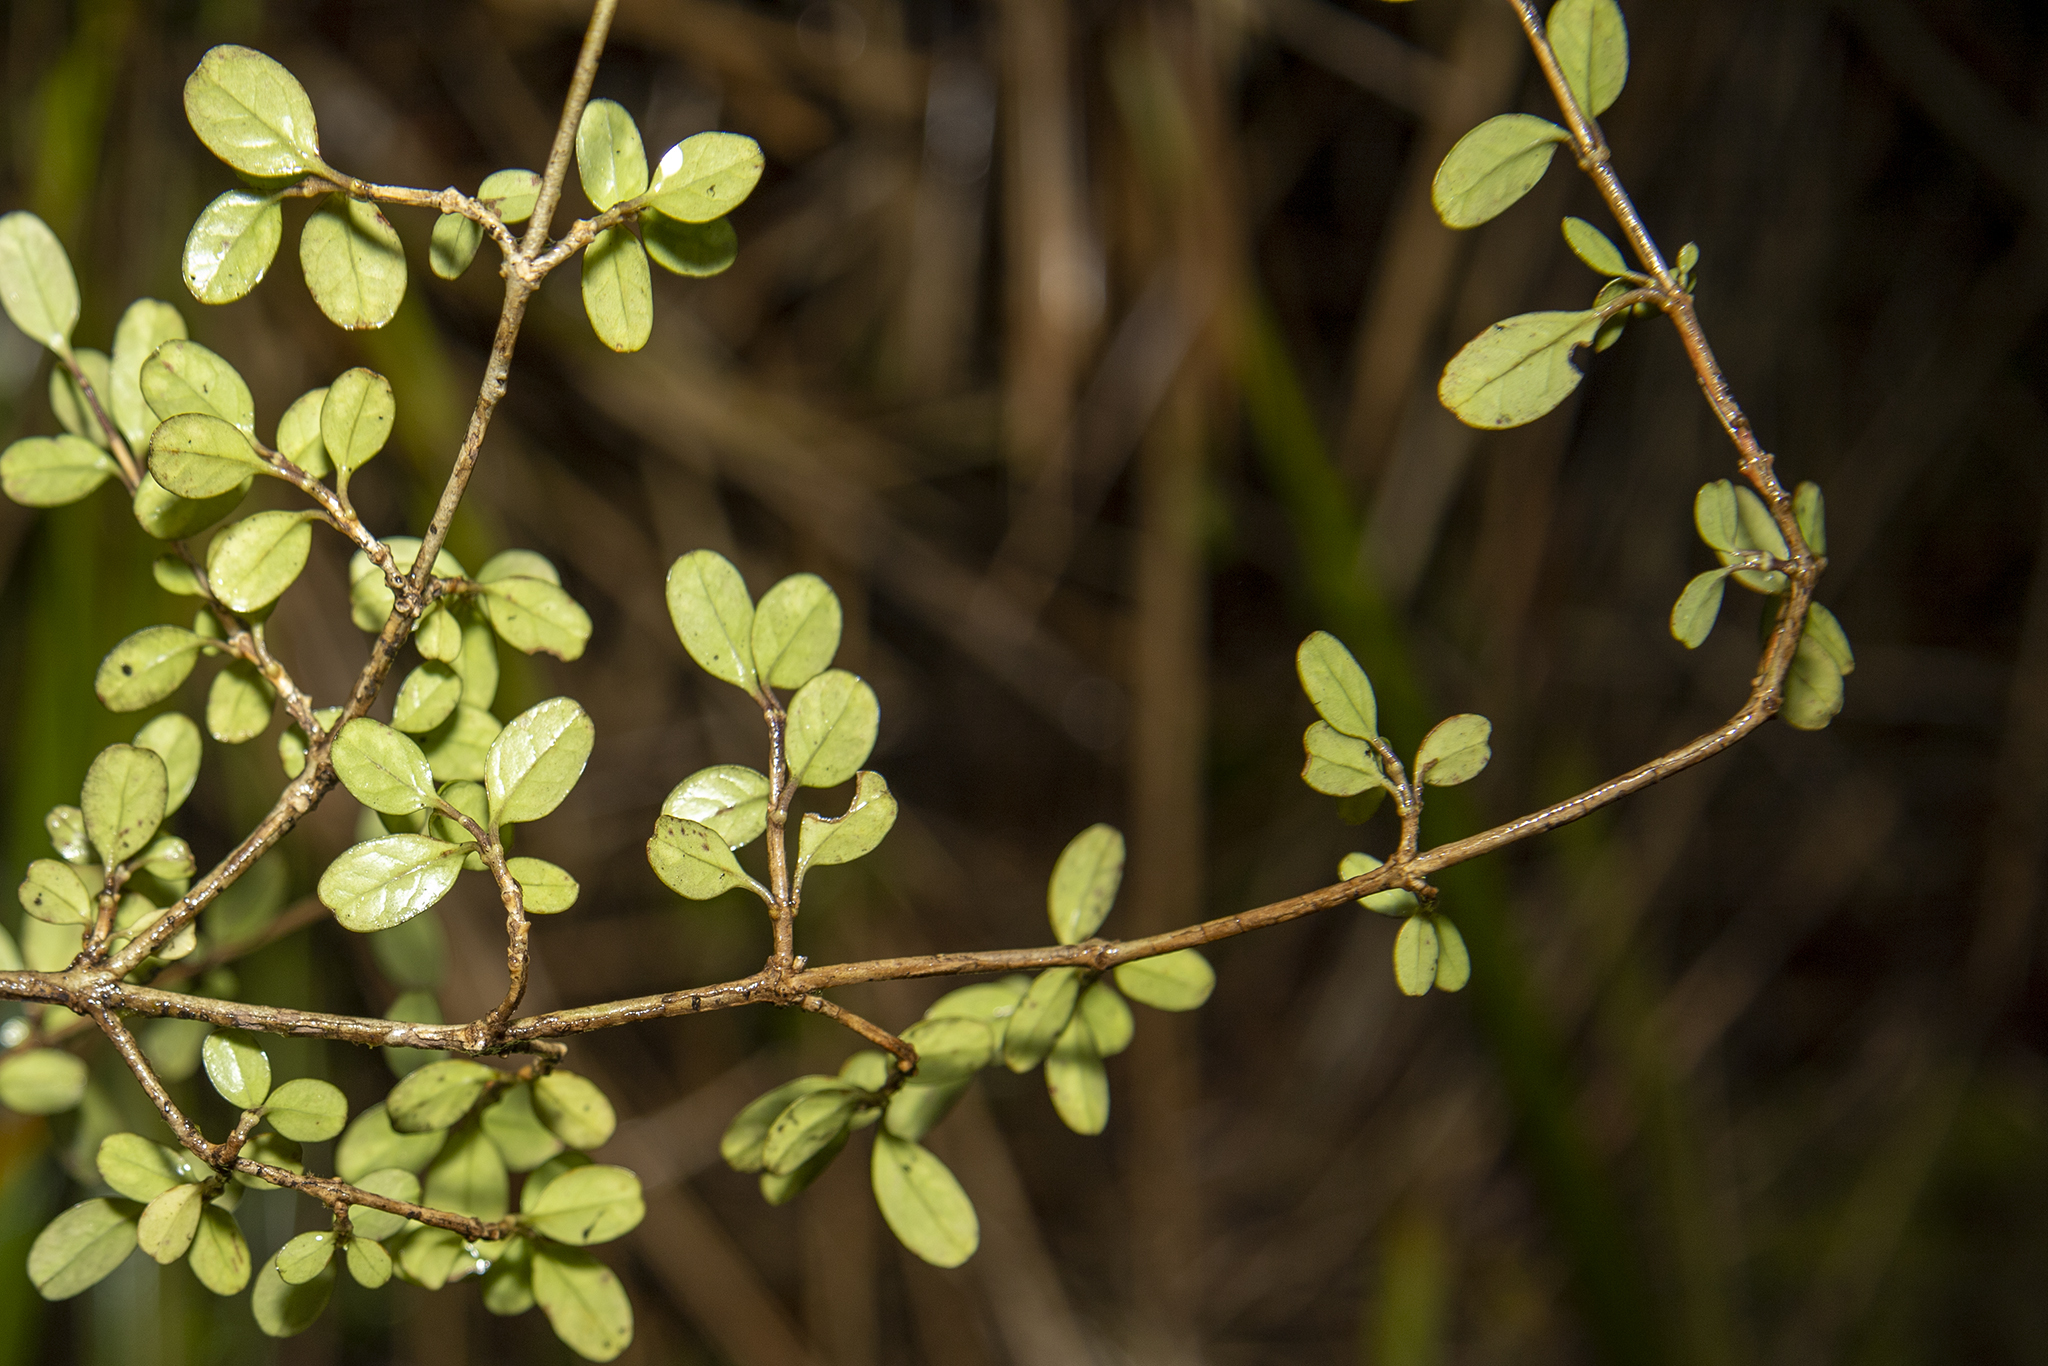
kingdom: Plantae
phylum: Tracheophyta
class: Magnoliopsida
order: Gentianales
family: Rubiaceae
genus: Coprosma
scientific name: Coprosma colensoi
